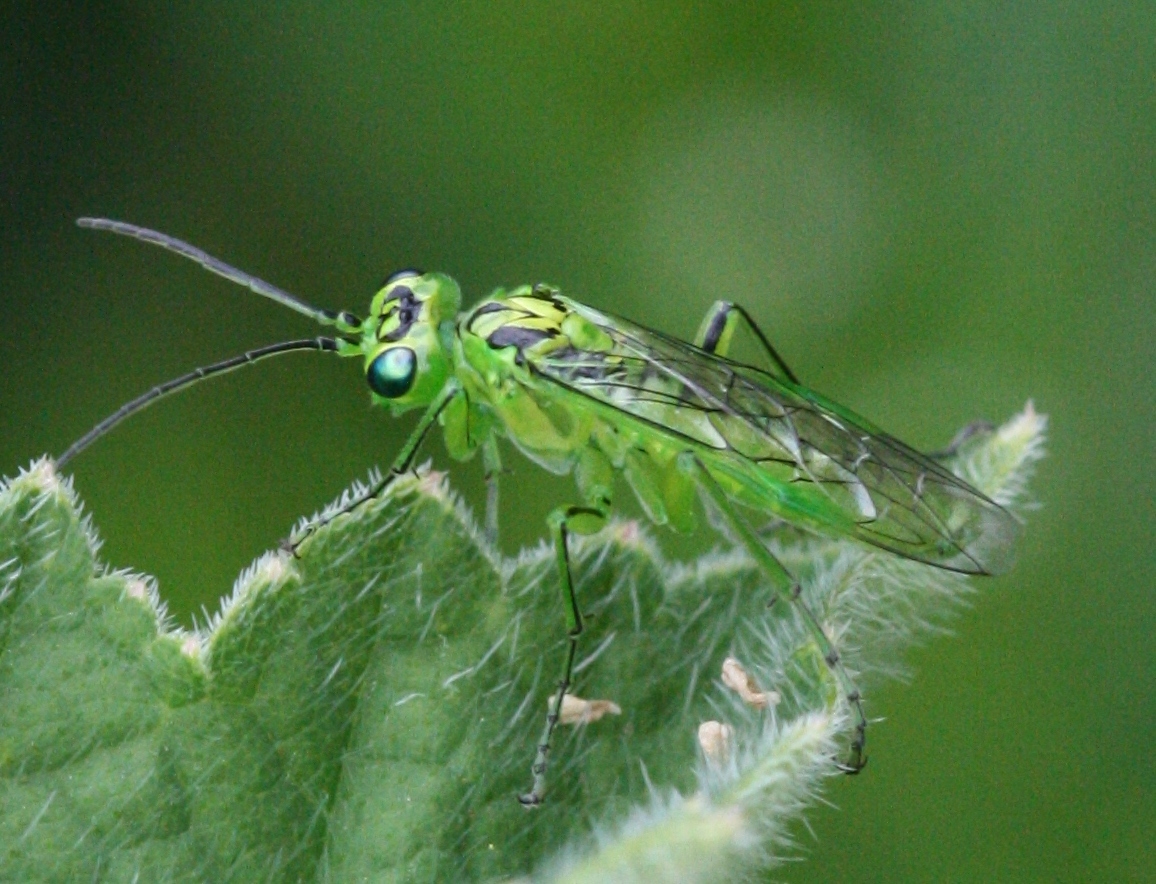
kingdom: Animalia
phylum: Arthropoda
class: Insecta
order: Hymenoptera
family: Tenthredinidae
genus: Rhogogaster
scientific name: Rhogogaster chlorosoma
